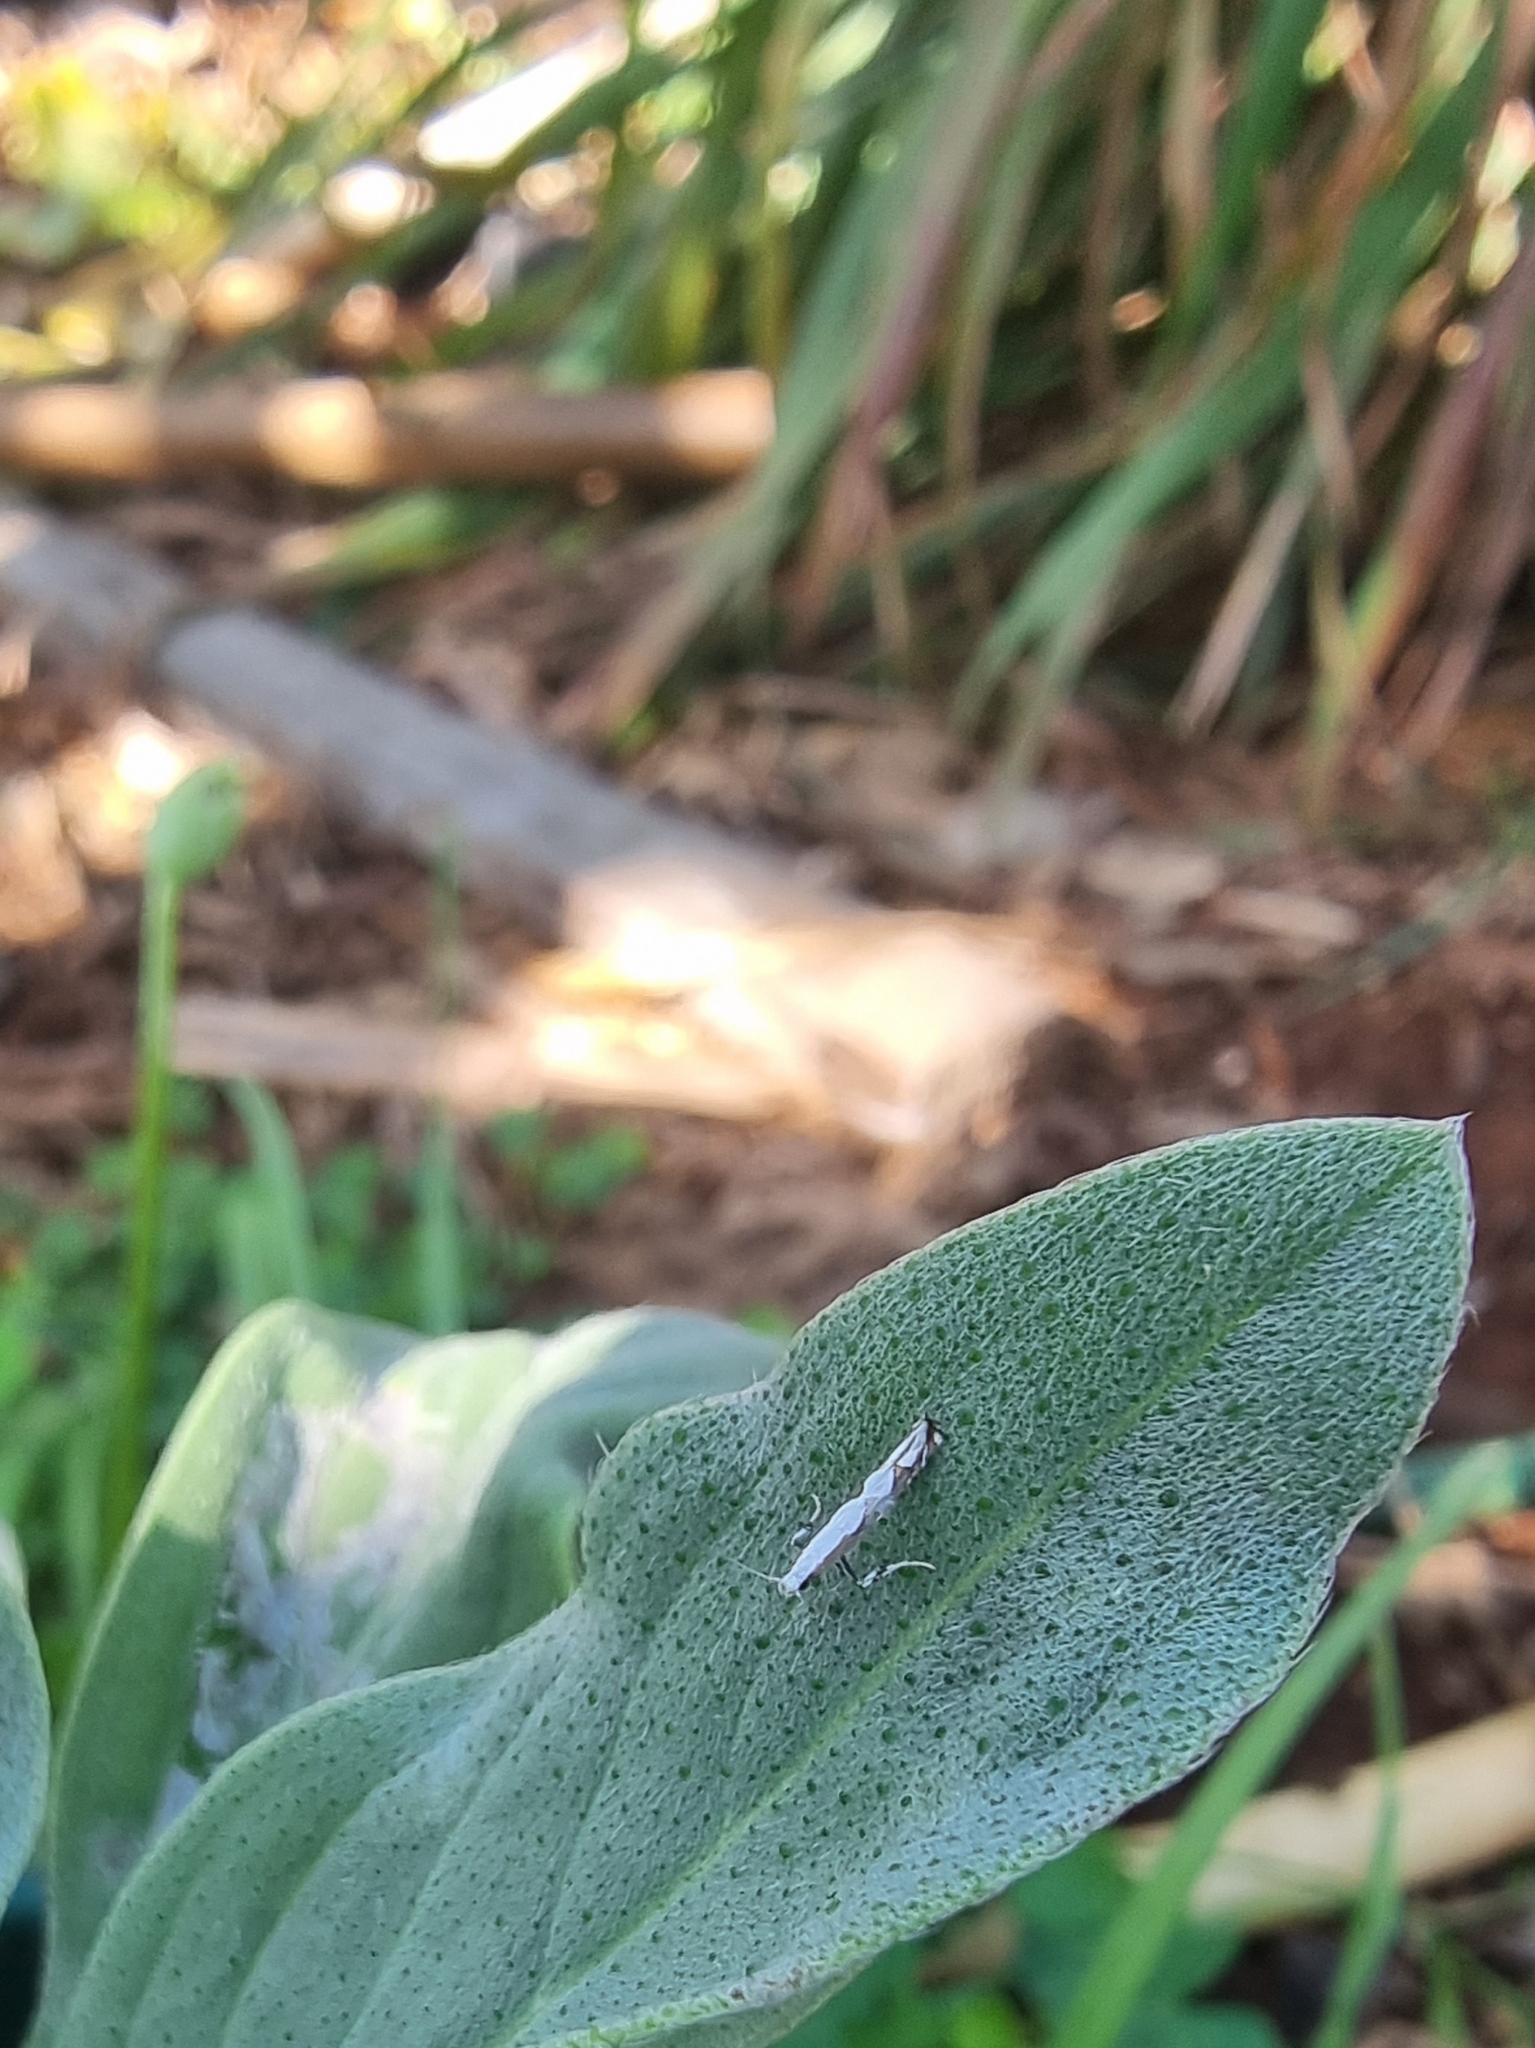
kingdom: Animalia
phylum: Arthropoda
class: Insecta
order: Lepidoptera
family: Gracillariidae
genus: Dialectica
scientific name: Dialectica scalariella
